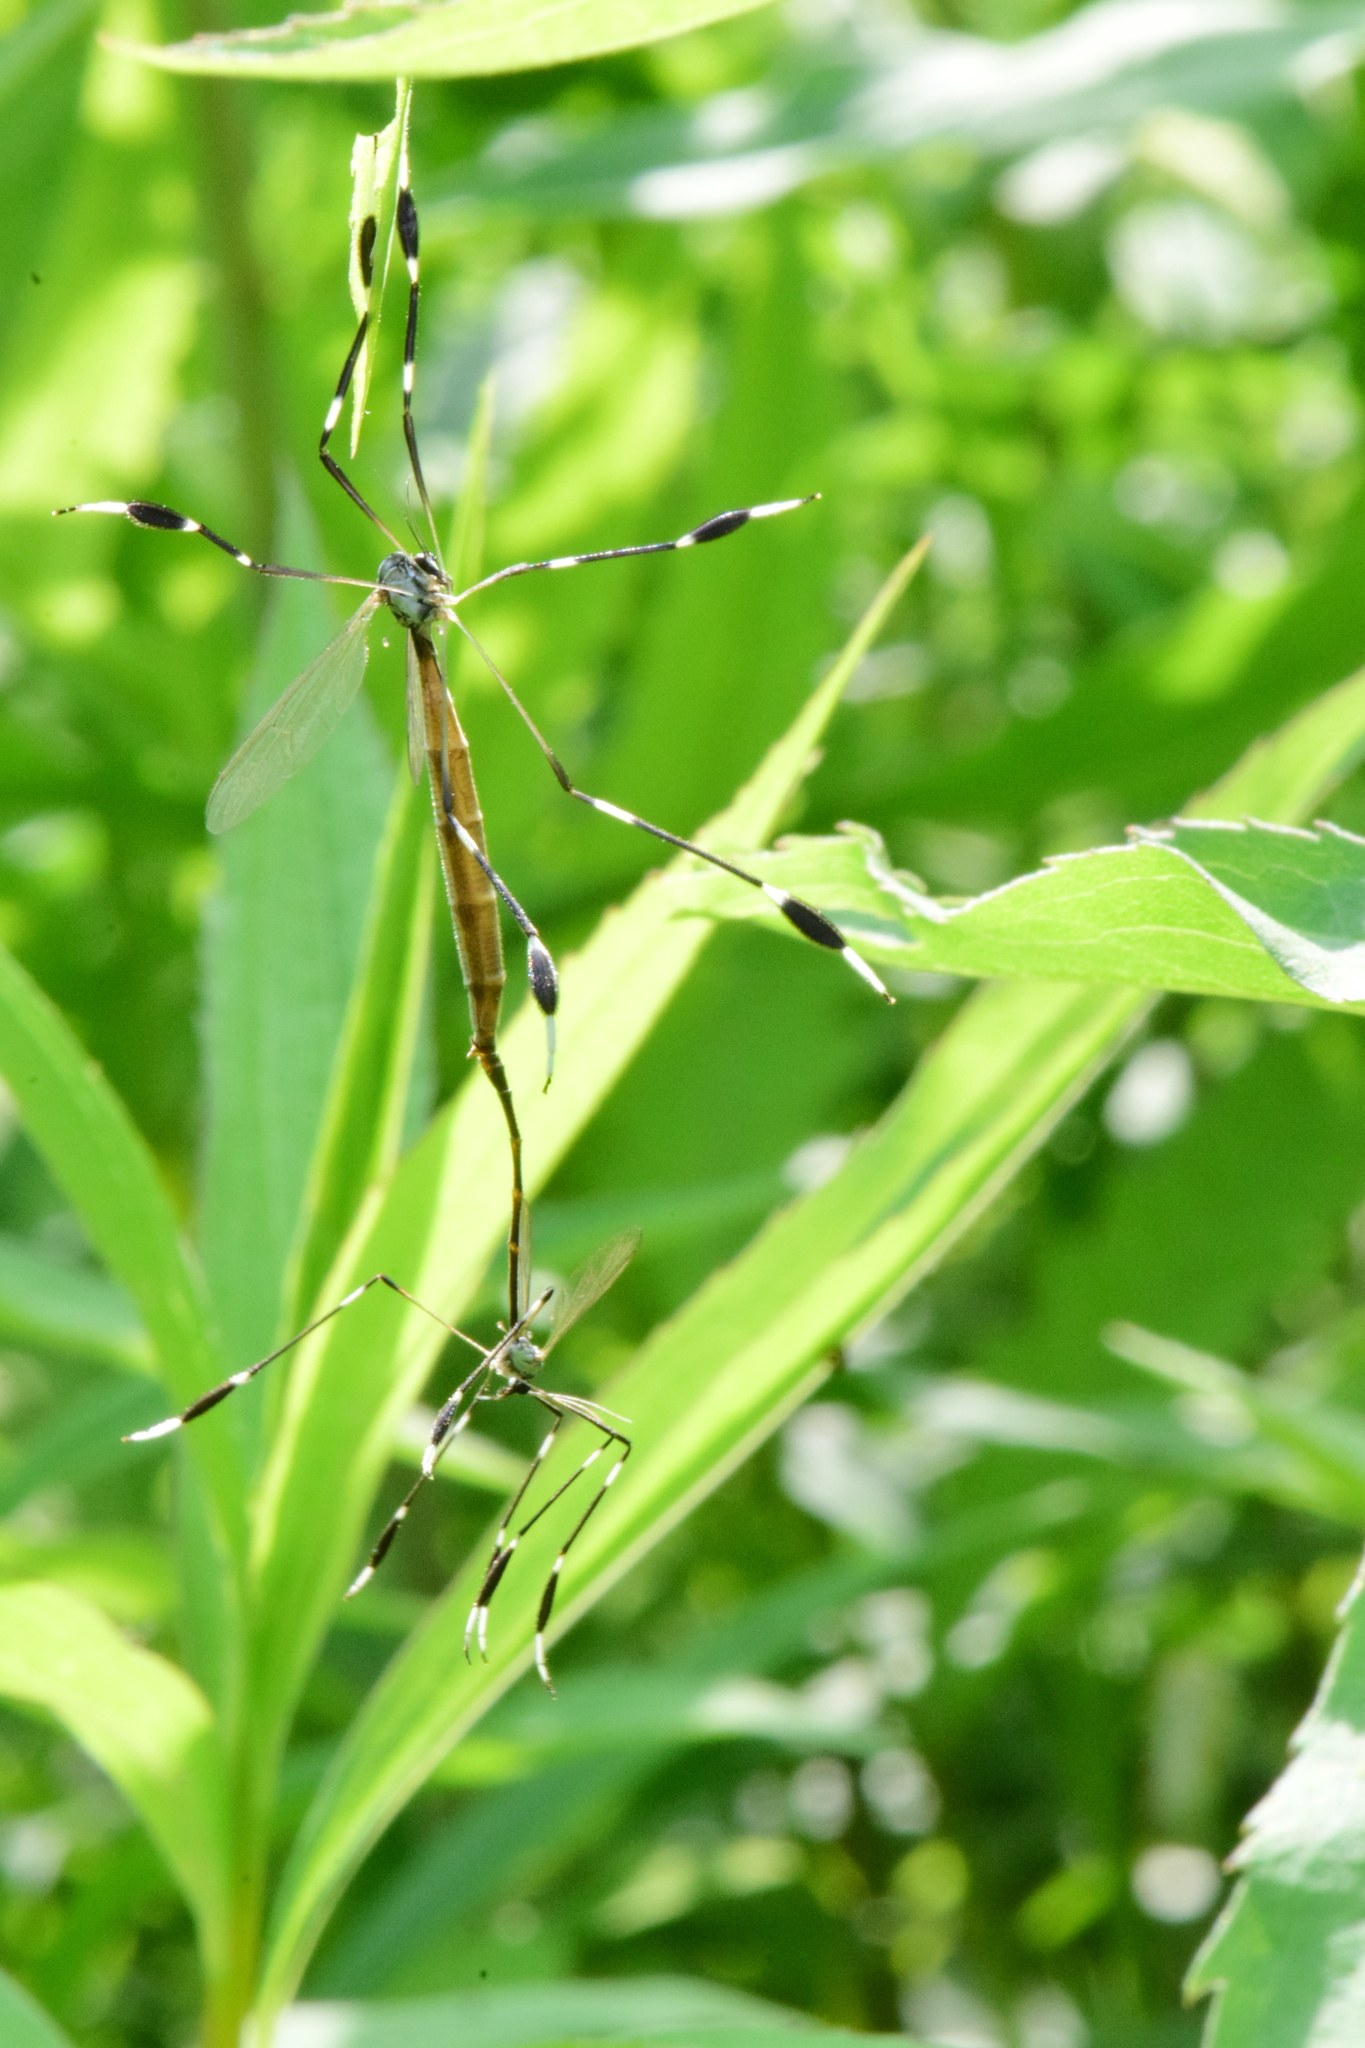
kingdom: Animalia
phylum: Arthropoda
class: Insecta
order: Diptera
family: Ptychopteridae
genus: Bittacomorpha
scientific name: Bittacomorpha clavipes
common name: Eastern phantom crane fly
